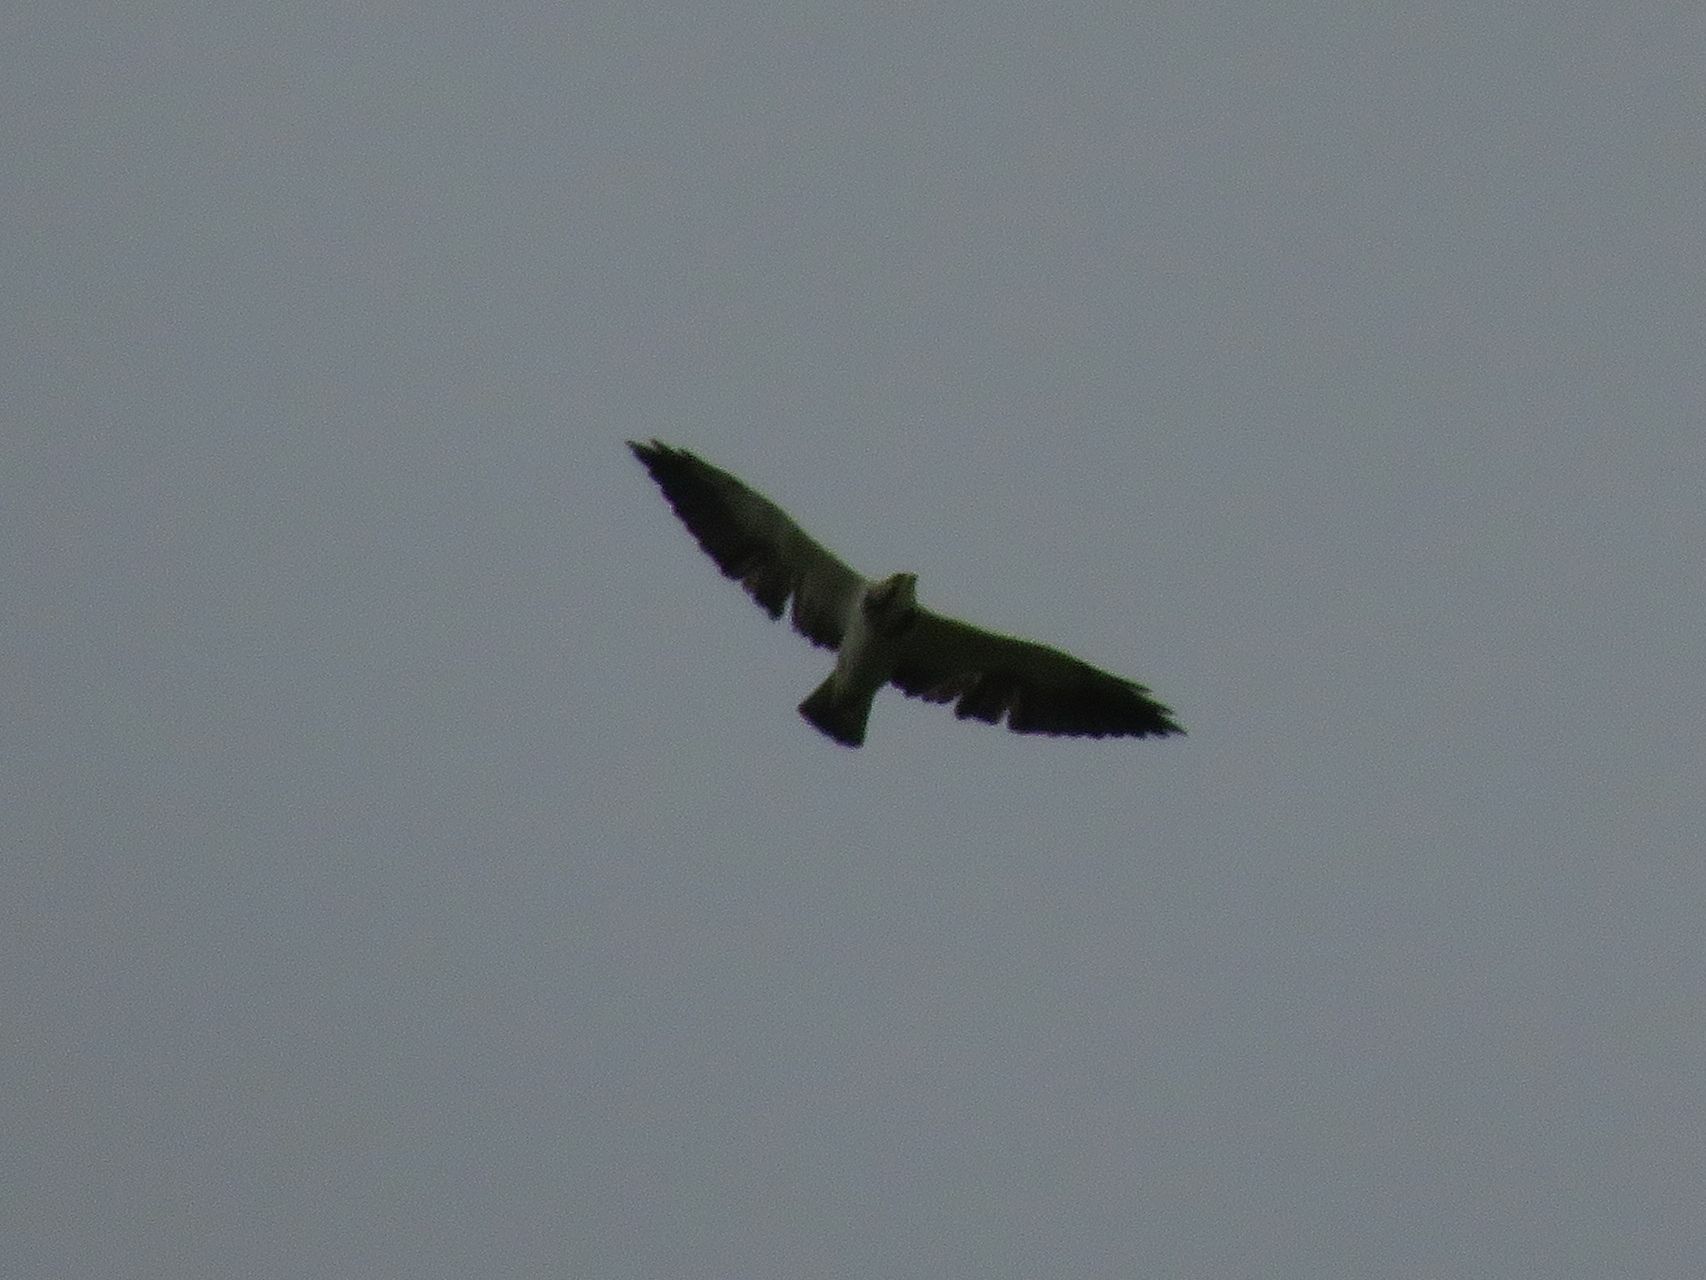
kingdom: Animalia
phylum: Chordata
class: Aves
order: Accipitriformes
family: Accipitridae
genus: Buteo
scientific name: Buteo swainsoni
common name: Swainson's hawk
